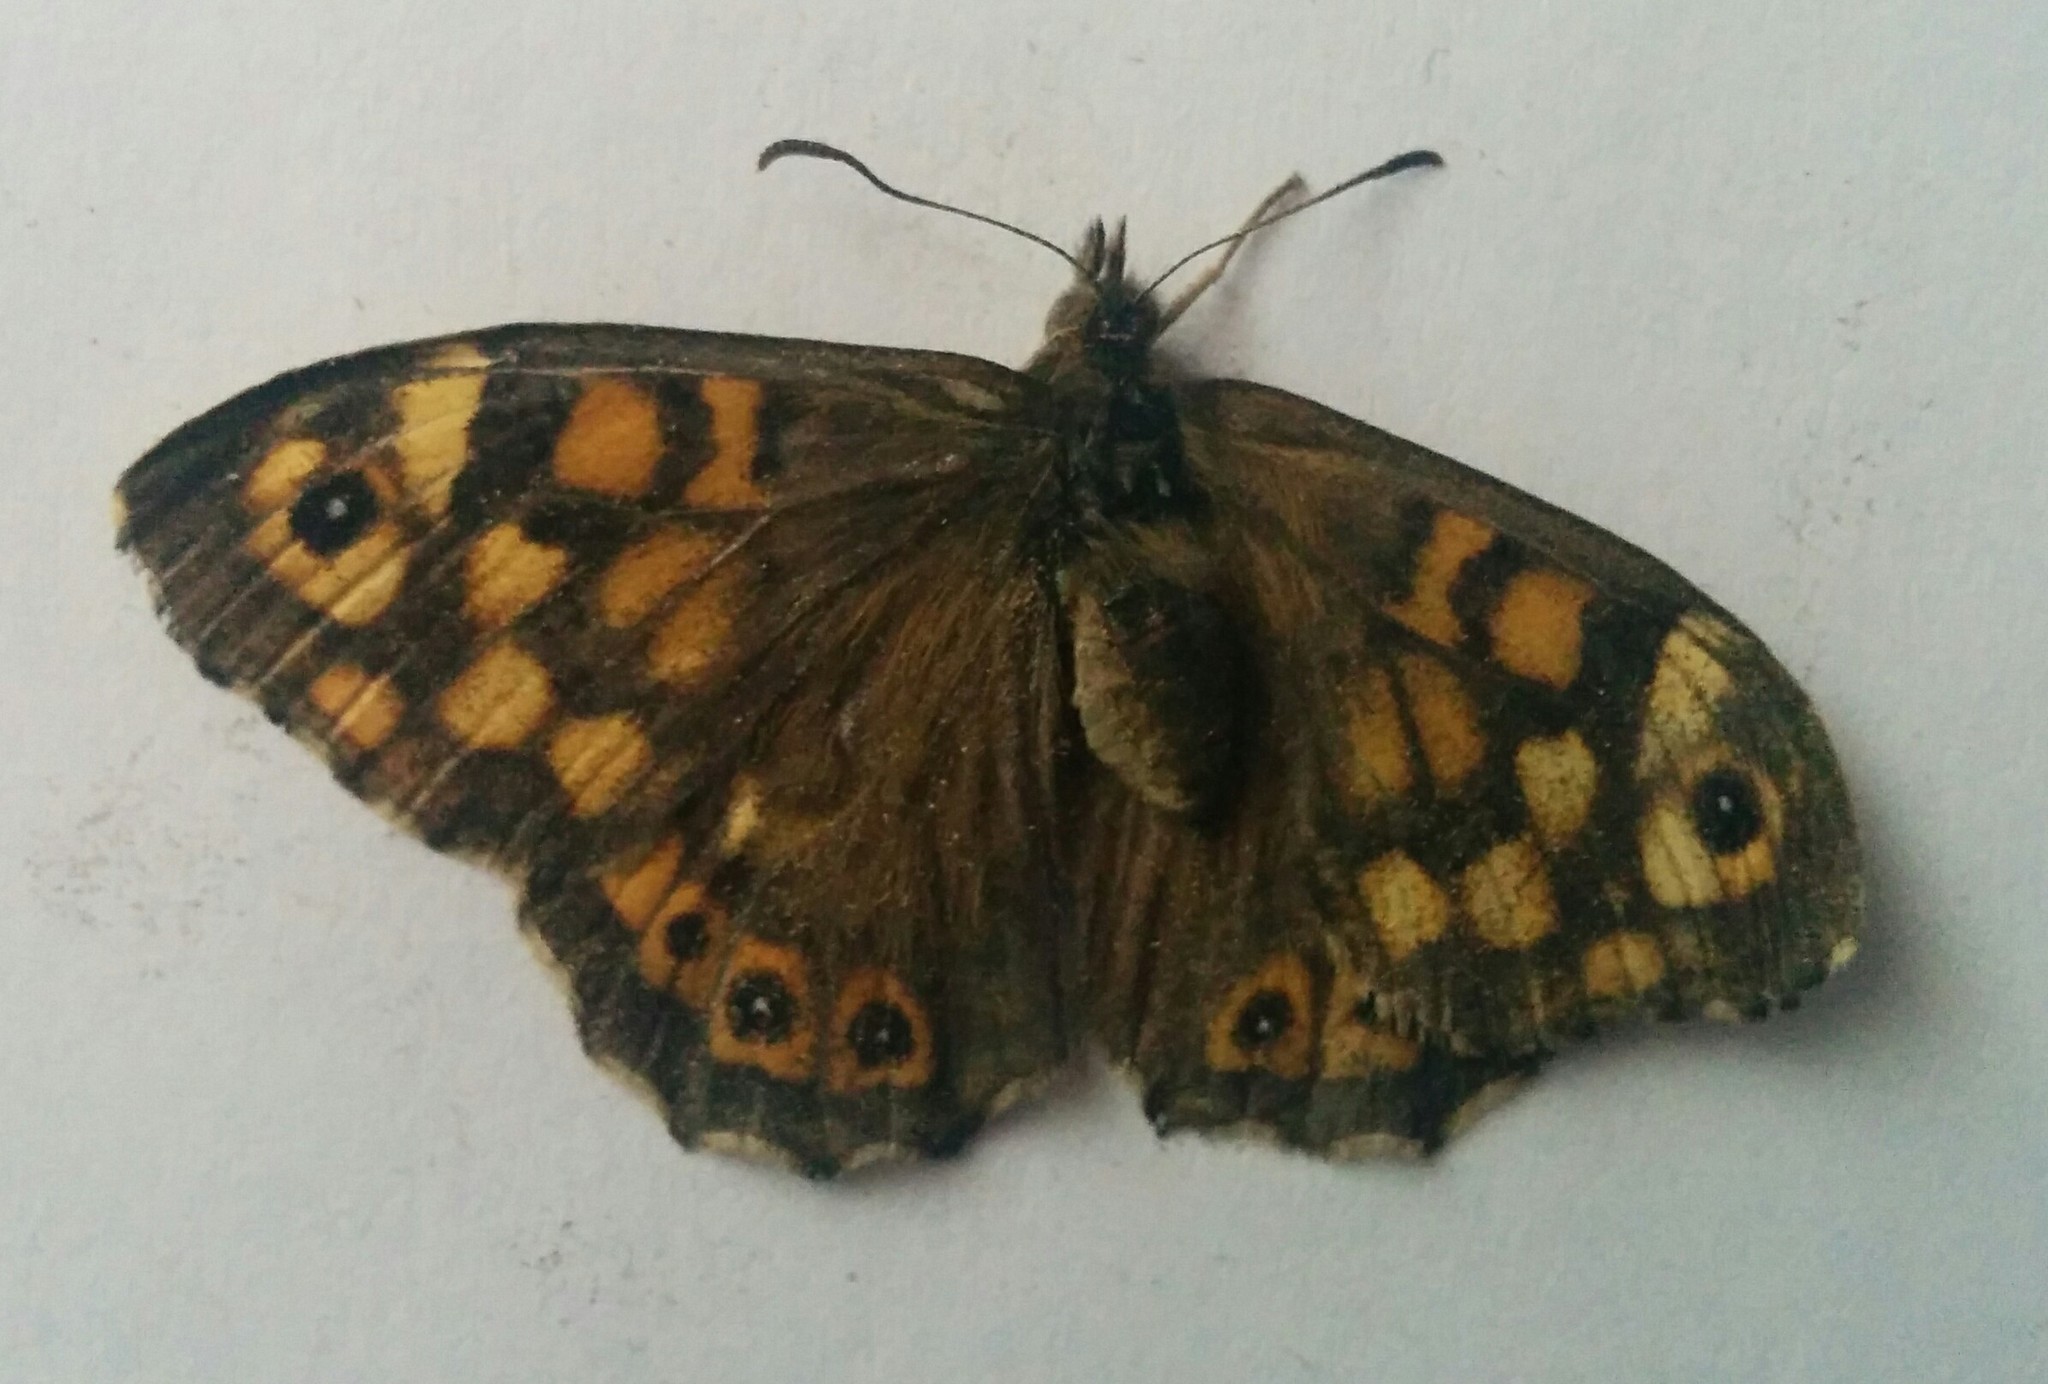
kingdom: Animalia
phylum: Arthropoda
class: Insecta
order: Lepidoptera
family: Nymphalidae
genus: Pararge
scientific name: Pararge aegeria
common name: Speckled wood
